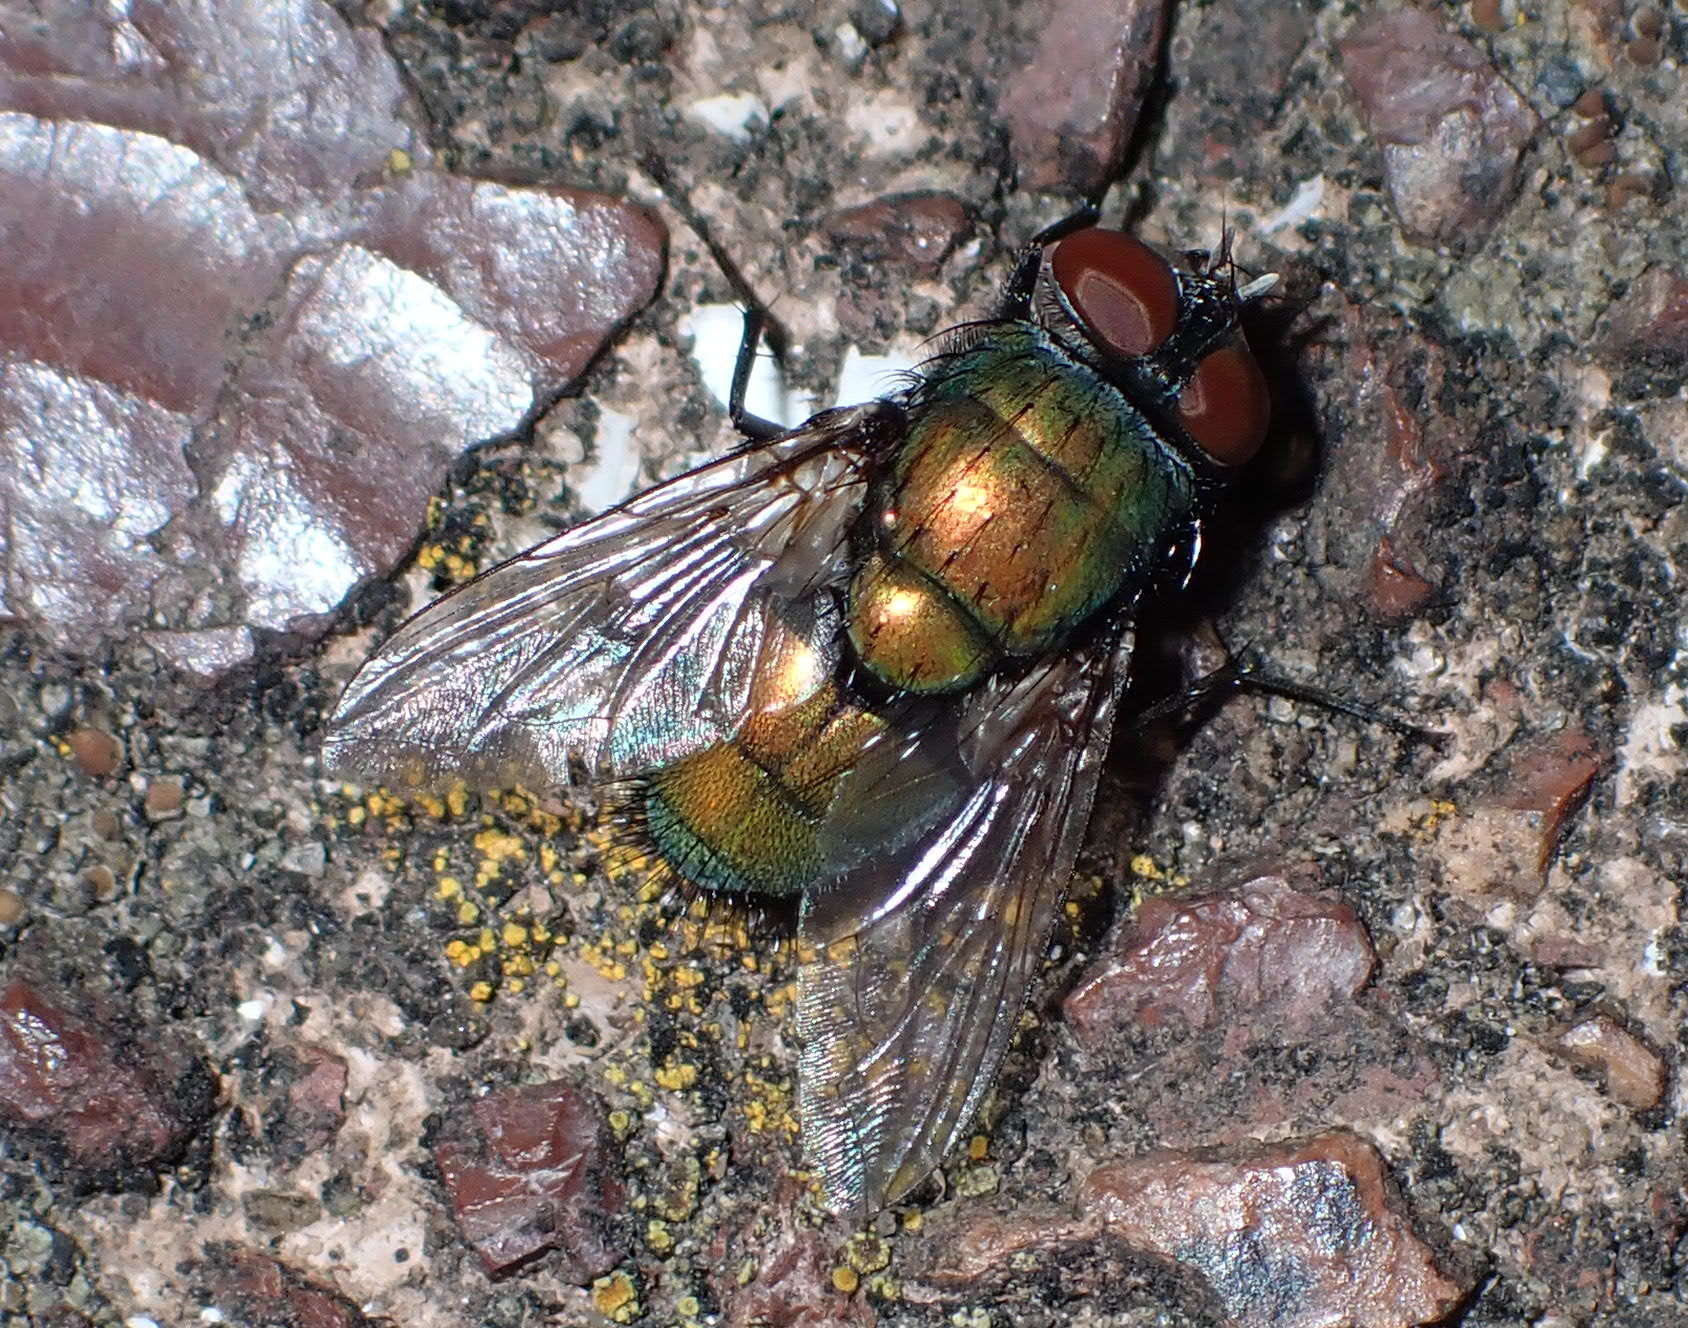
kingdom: Animalia
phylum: Arthropoda
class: Insecta
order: Diptera
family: Calliphoridae
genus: Lucilia
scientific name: Lucilia sericata
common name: Blow fly
